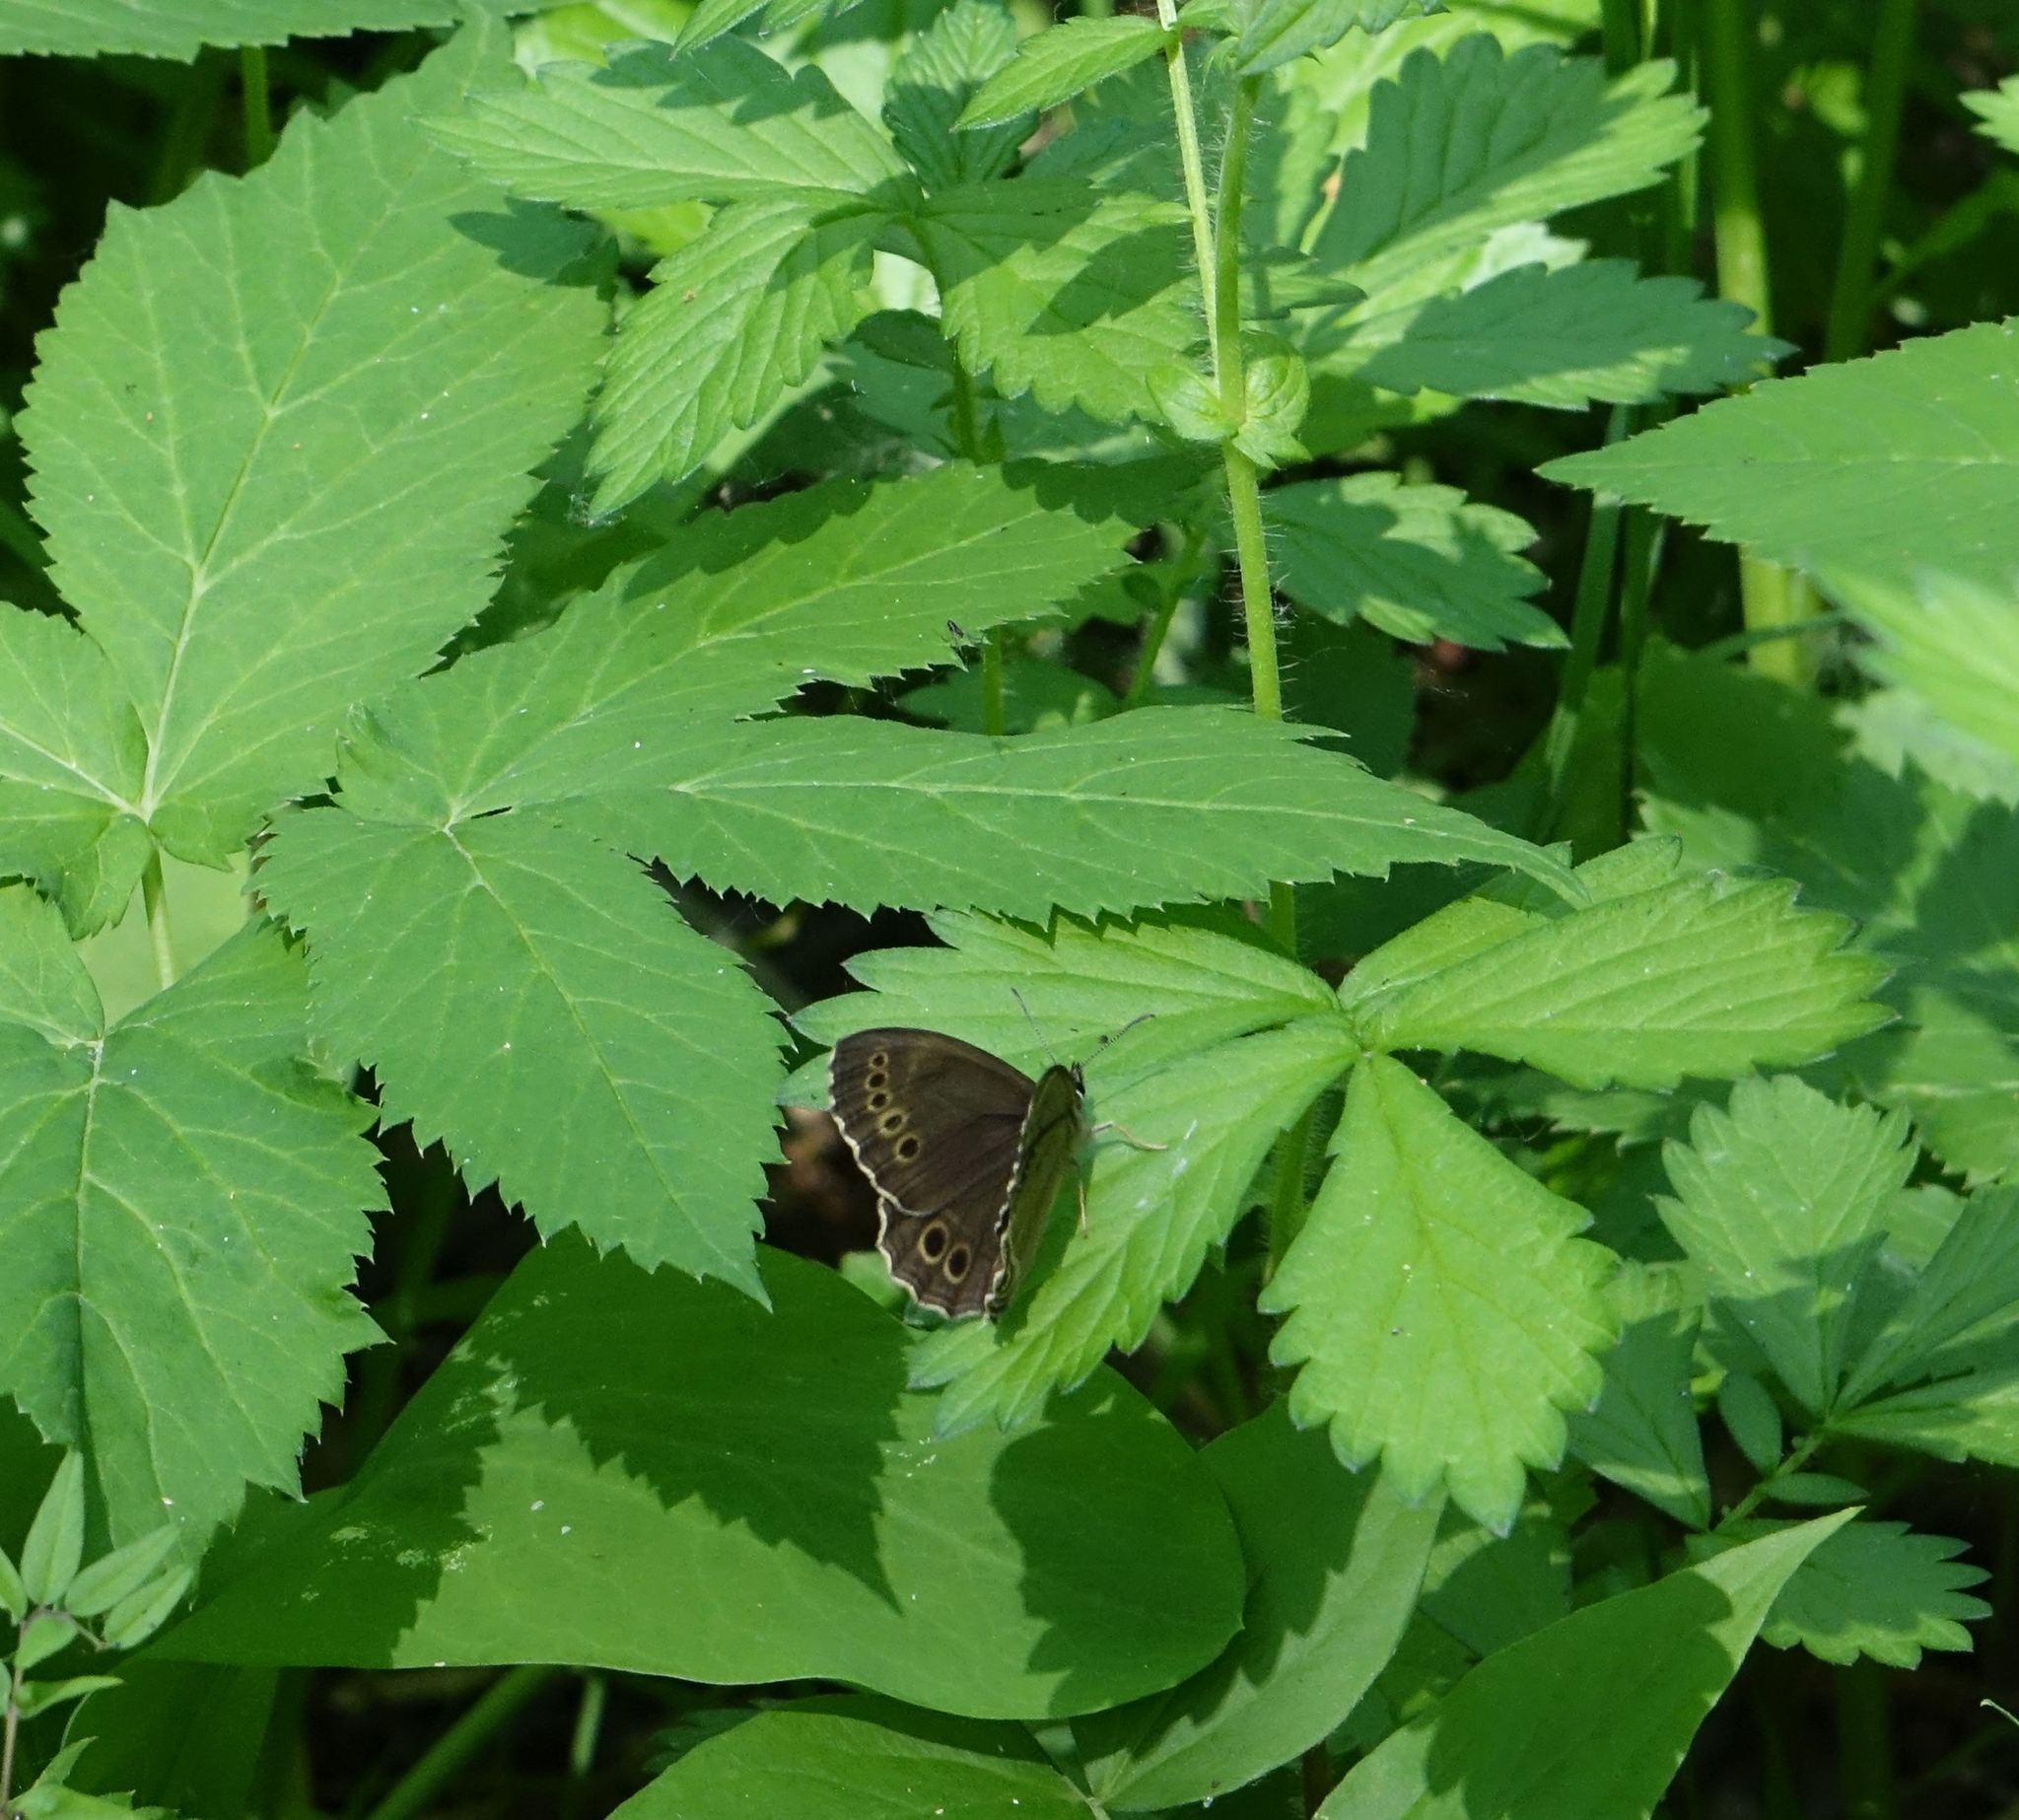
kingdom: Animalia
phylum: Arthropoda
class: Insecta
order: Lepidoptera
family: Nymphalidae
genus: Pararge
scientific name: Pararge Lopinga achine
